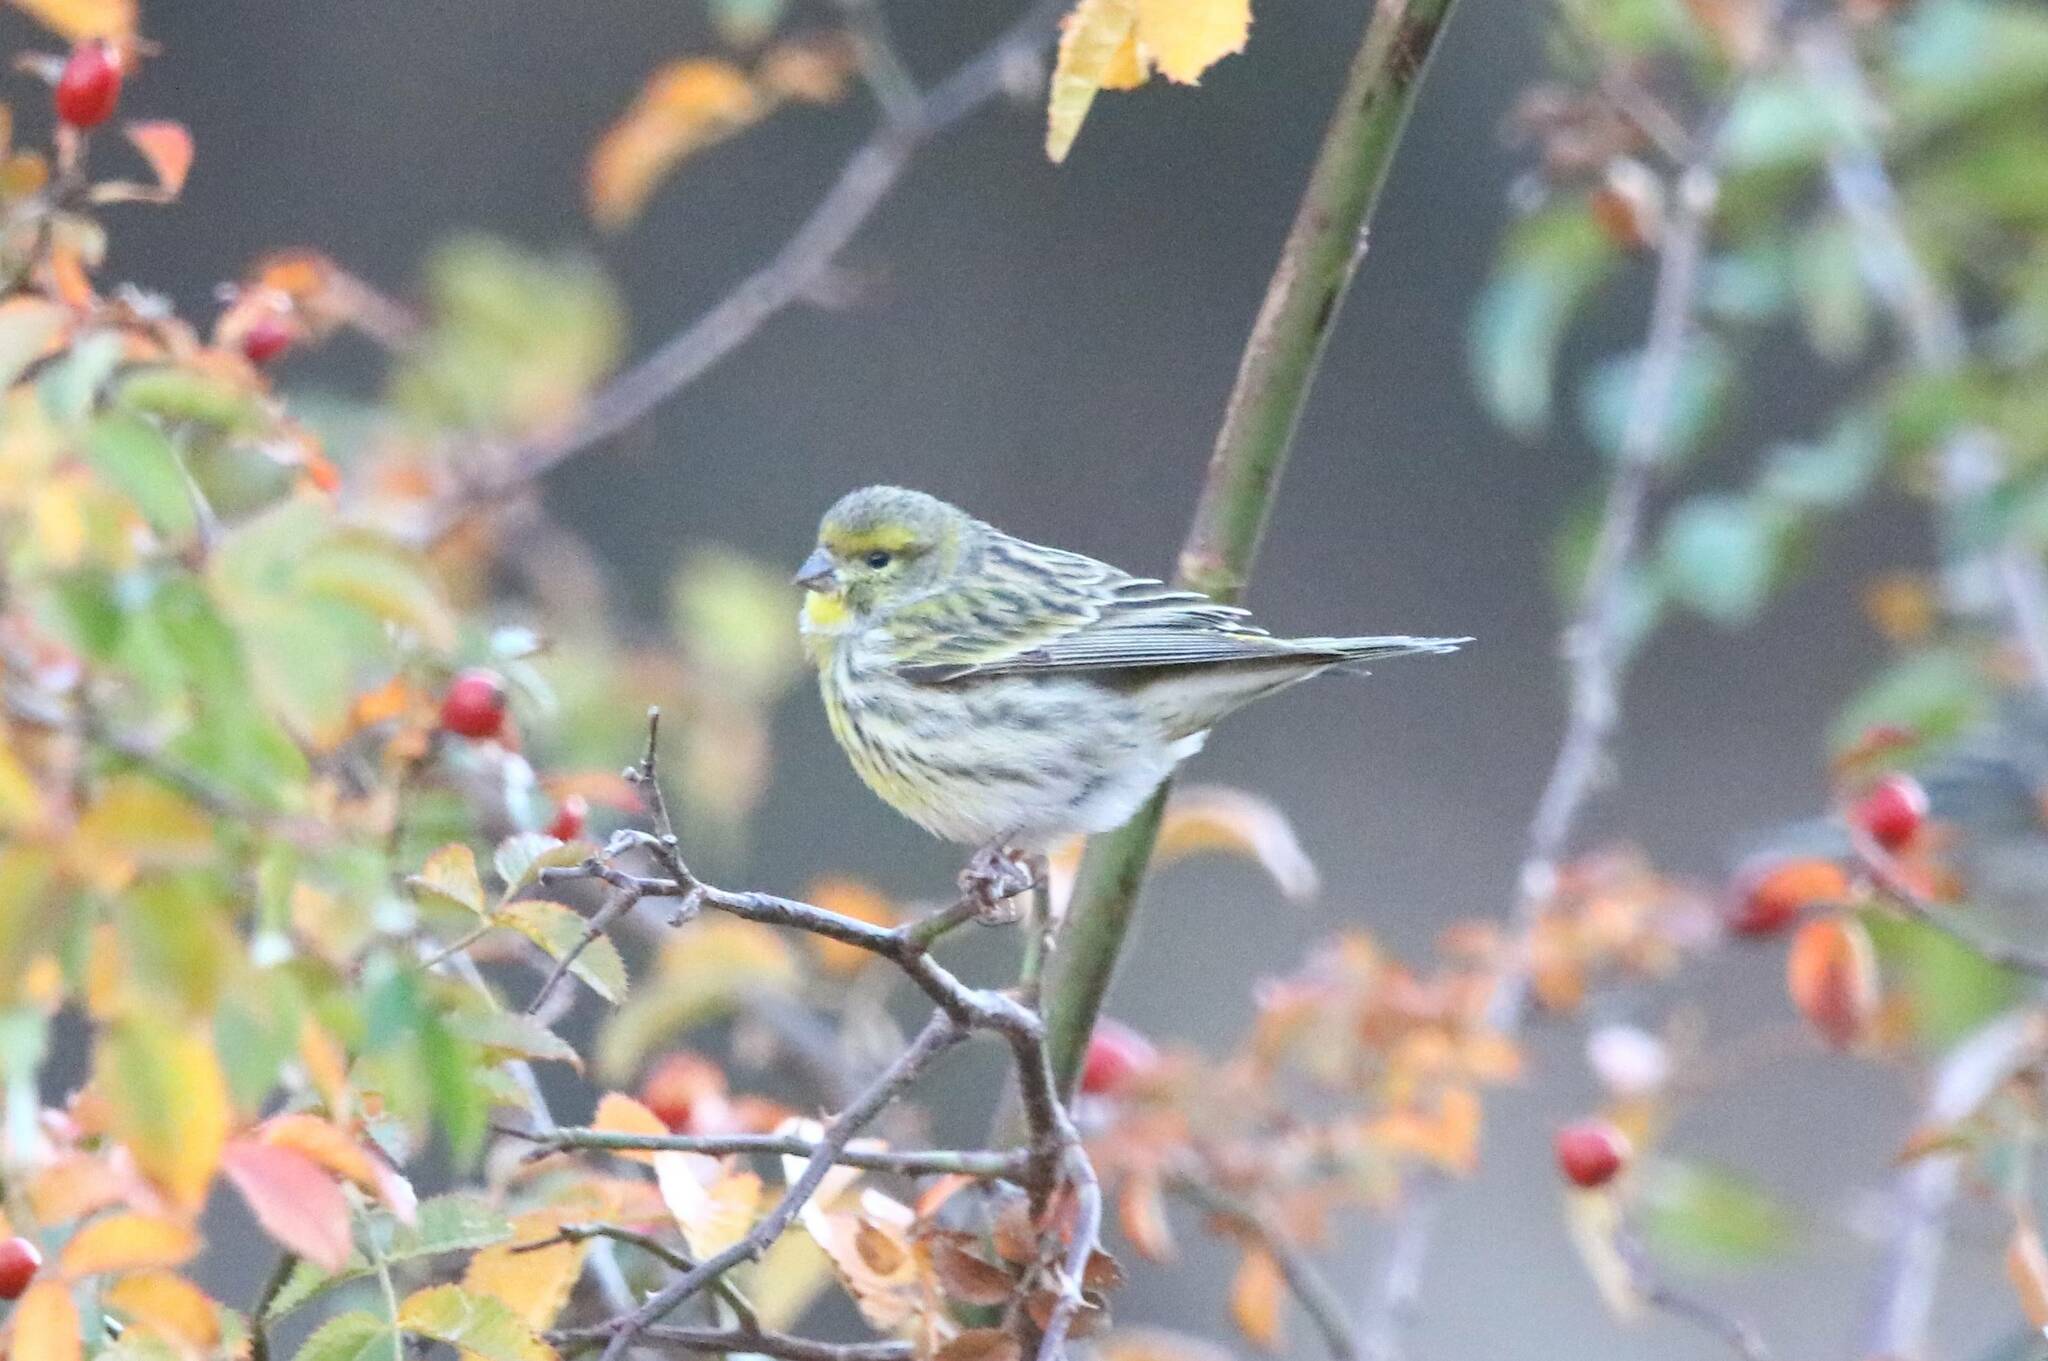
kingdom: Animalia
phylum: Chordata
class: Aves
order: Passeriformes
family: Fringillidae
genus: Serinus
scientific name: Serinus serinus
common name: European serin
